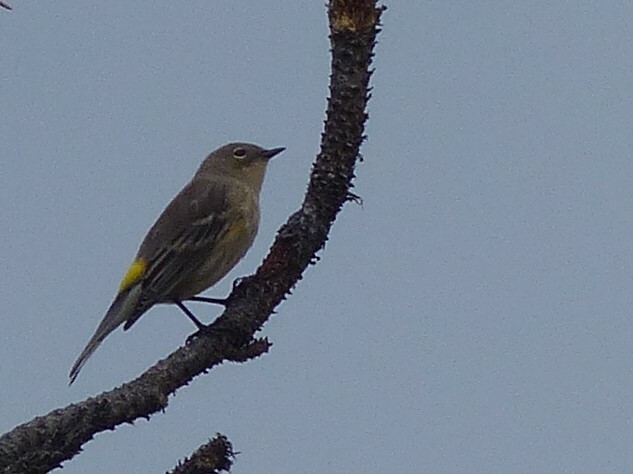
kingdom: Animalia
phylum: Chordata
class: Aves
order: Passeriformes
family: Parulidae
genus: Setophaga
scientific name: Setophaga coronata
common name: Myrtle warbler
